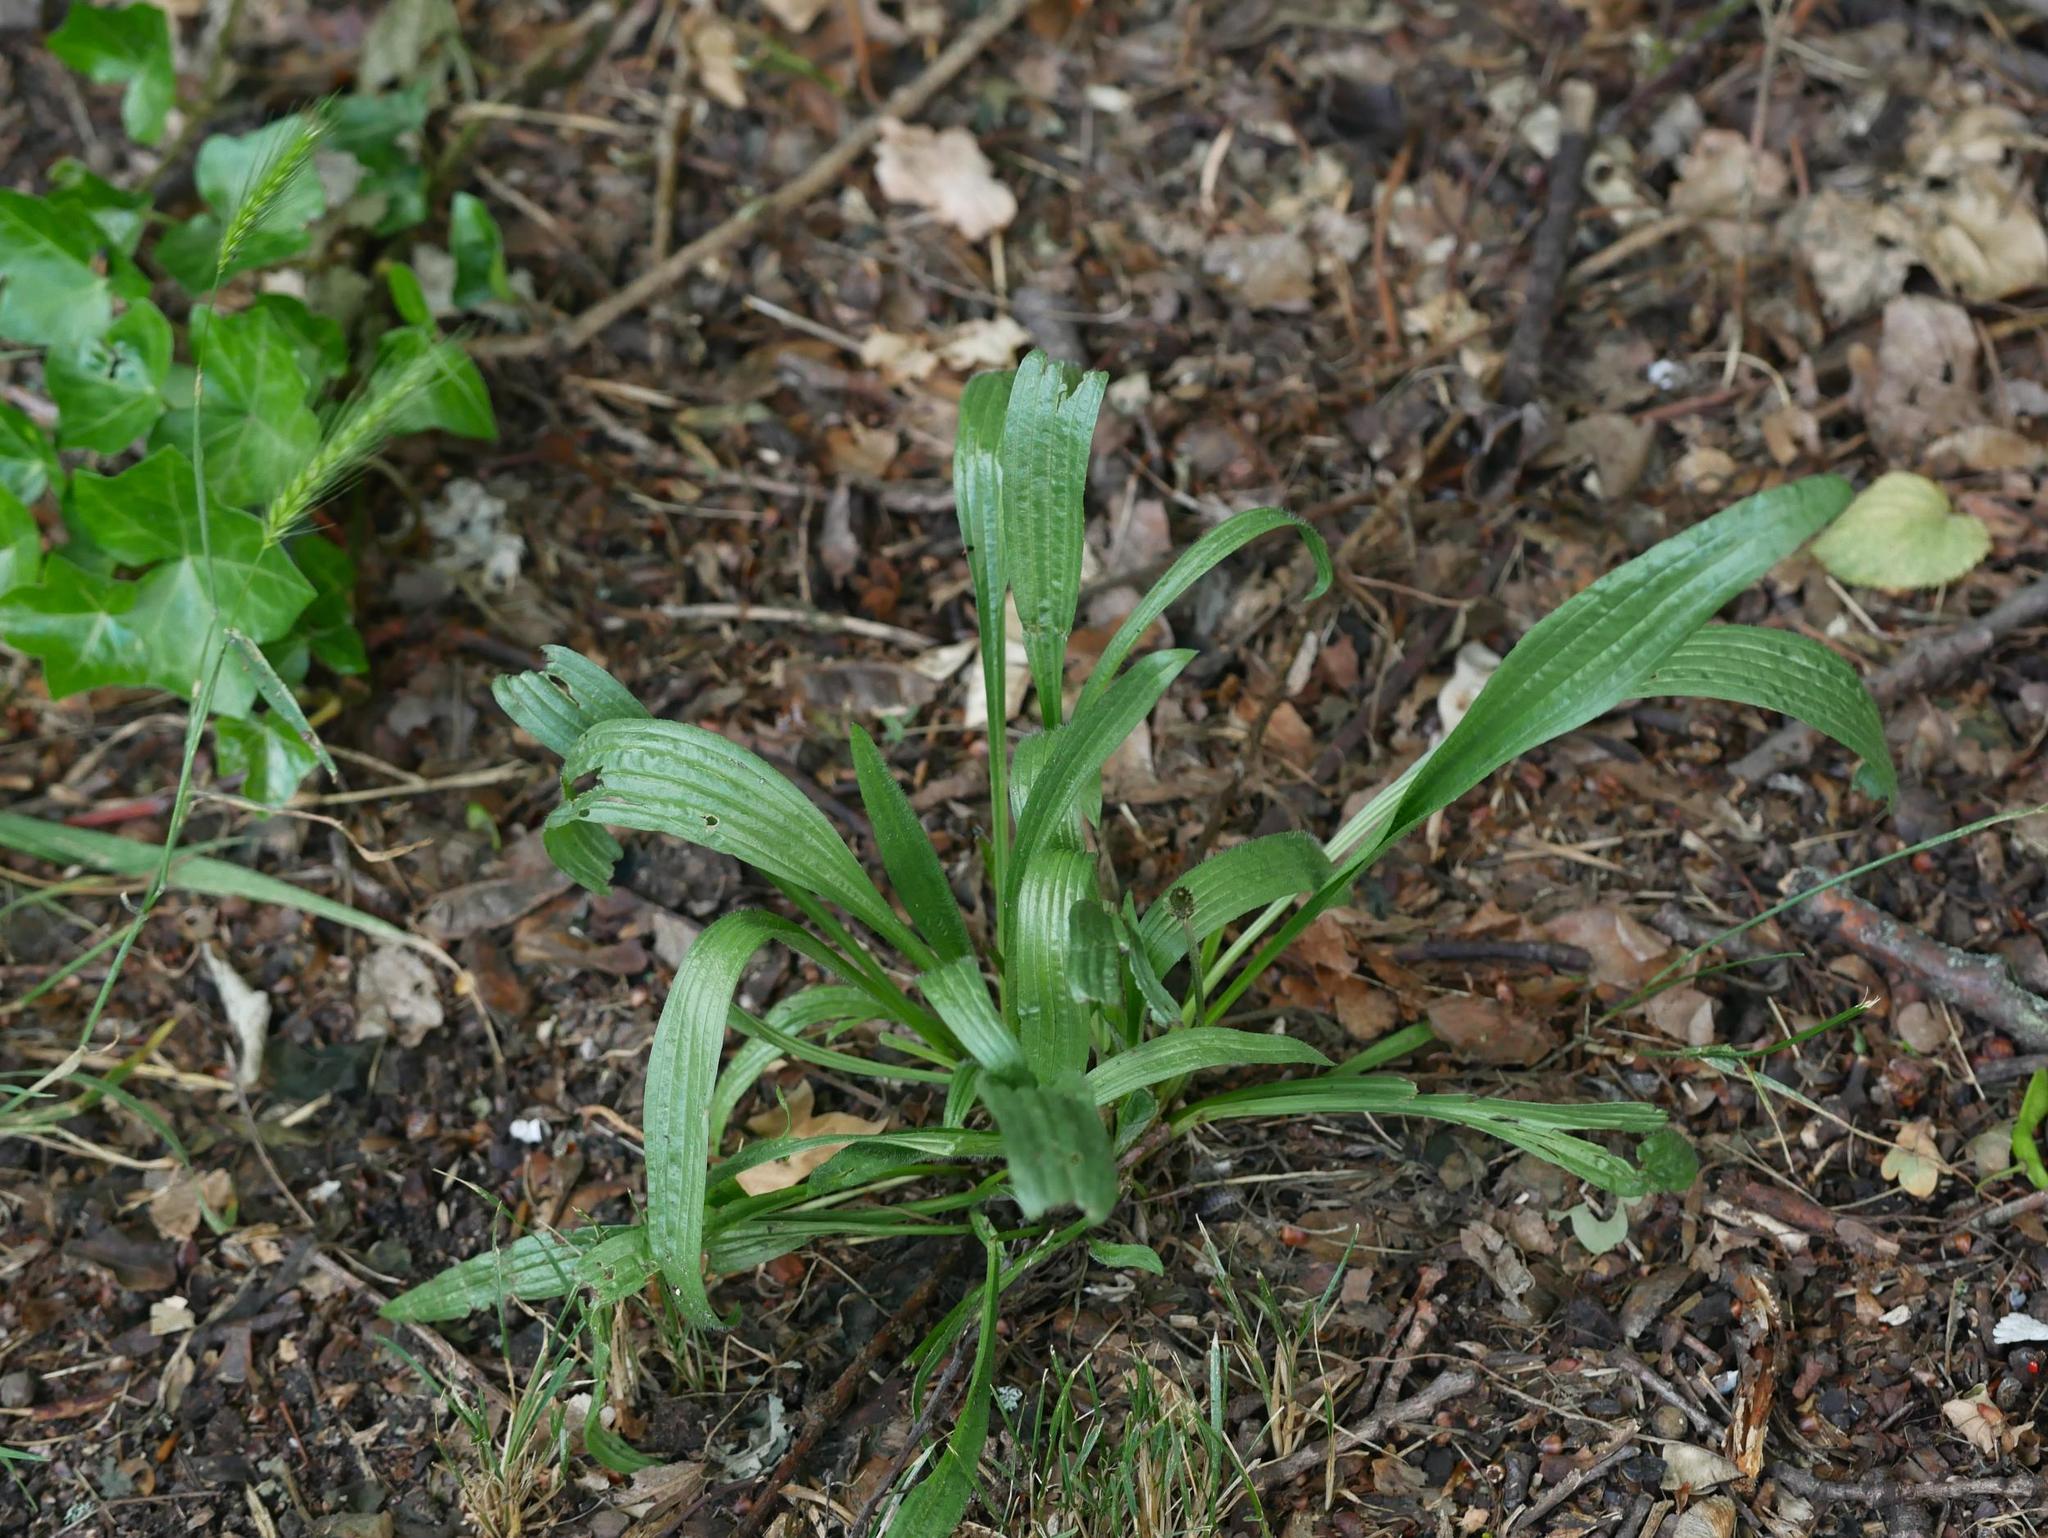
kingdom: Plantae
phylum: Tracheophyta
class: Magnoliopsida
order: Lamiales
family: Plantaginaceae
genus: Plantago
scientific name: Plantago lanceolata
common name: Ribwort plantain
